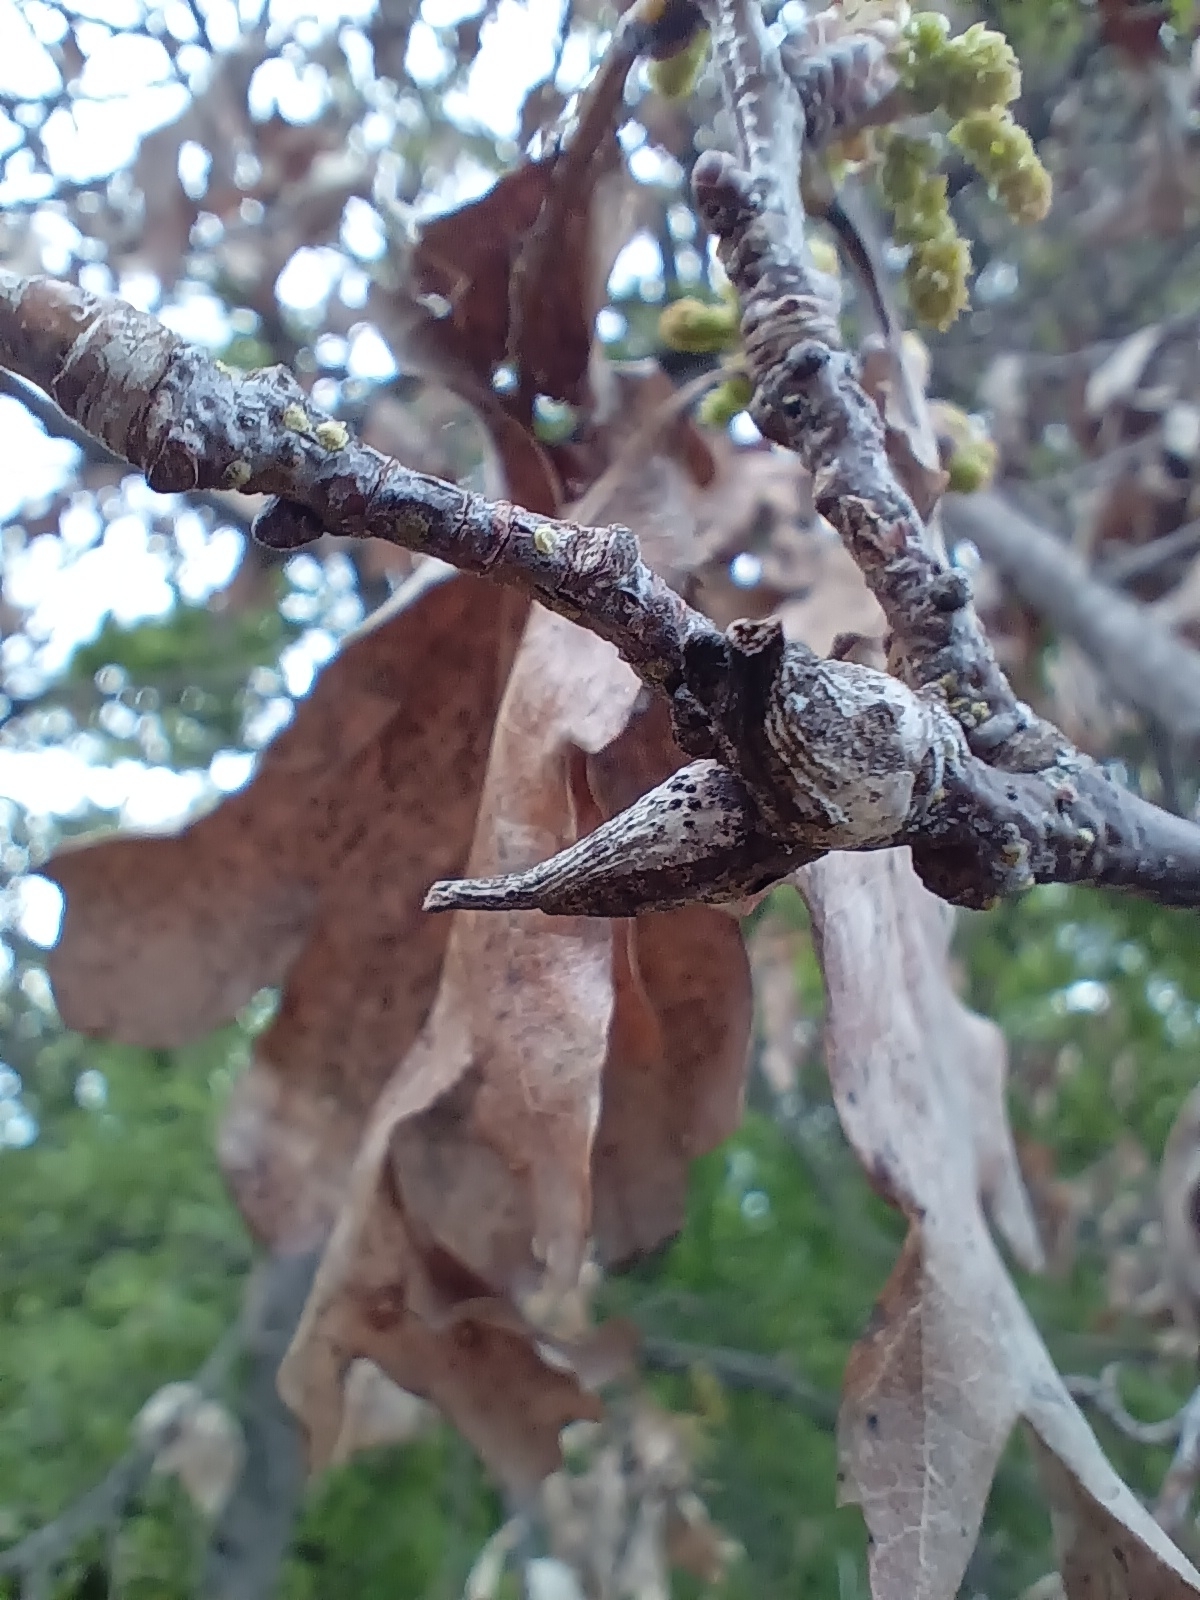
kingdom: Animalia
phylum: Arthropoda
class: Insecta
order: Hymenoptera
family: Cynipidae
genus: Andricus
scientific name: Andricus aries
